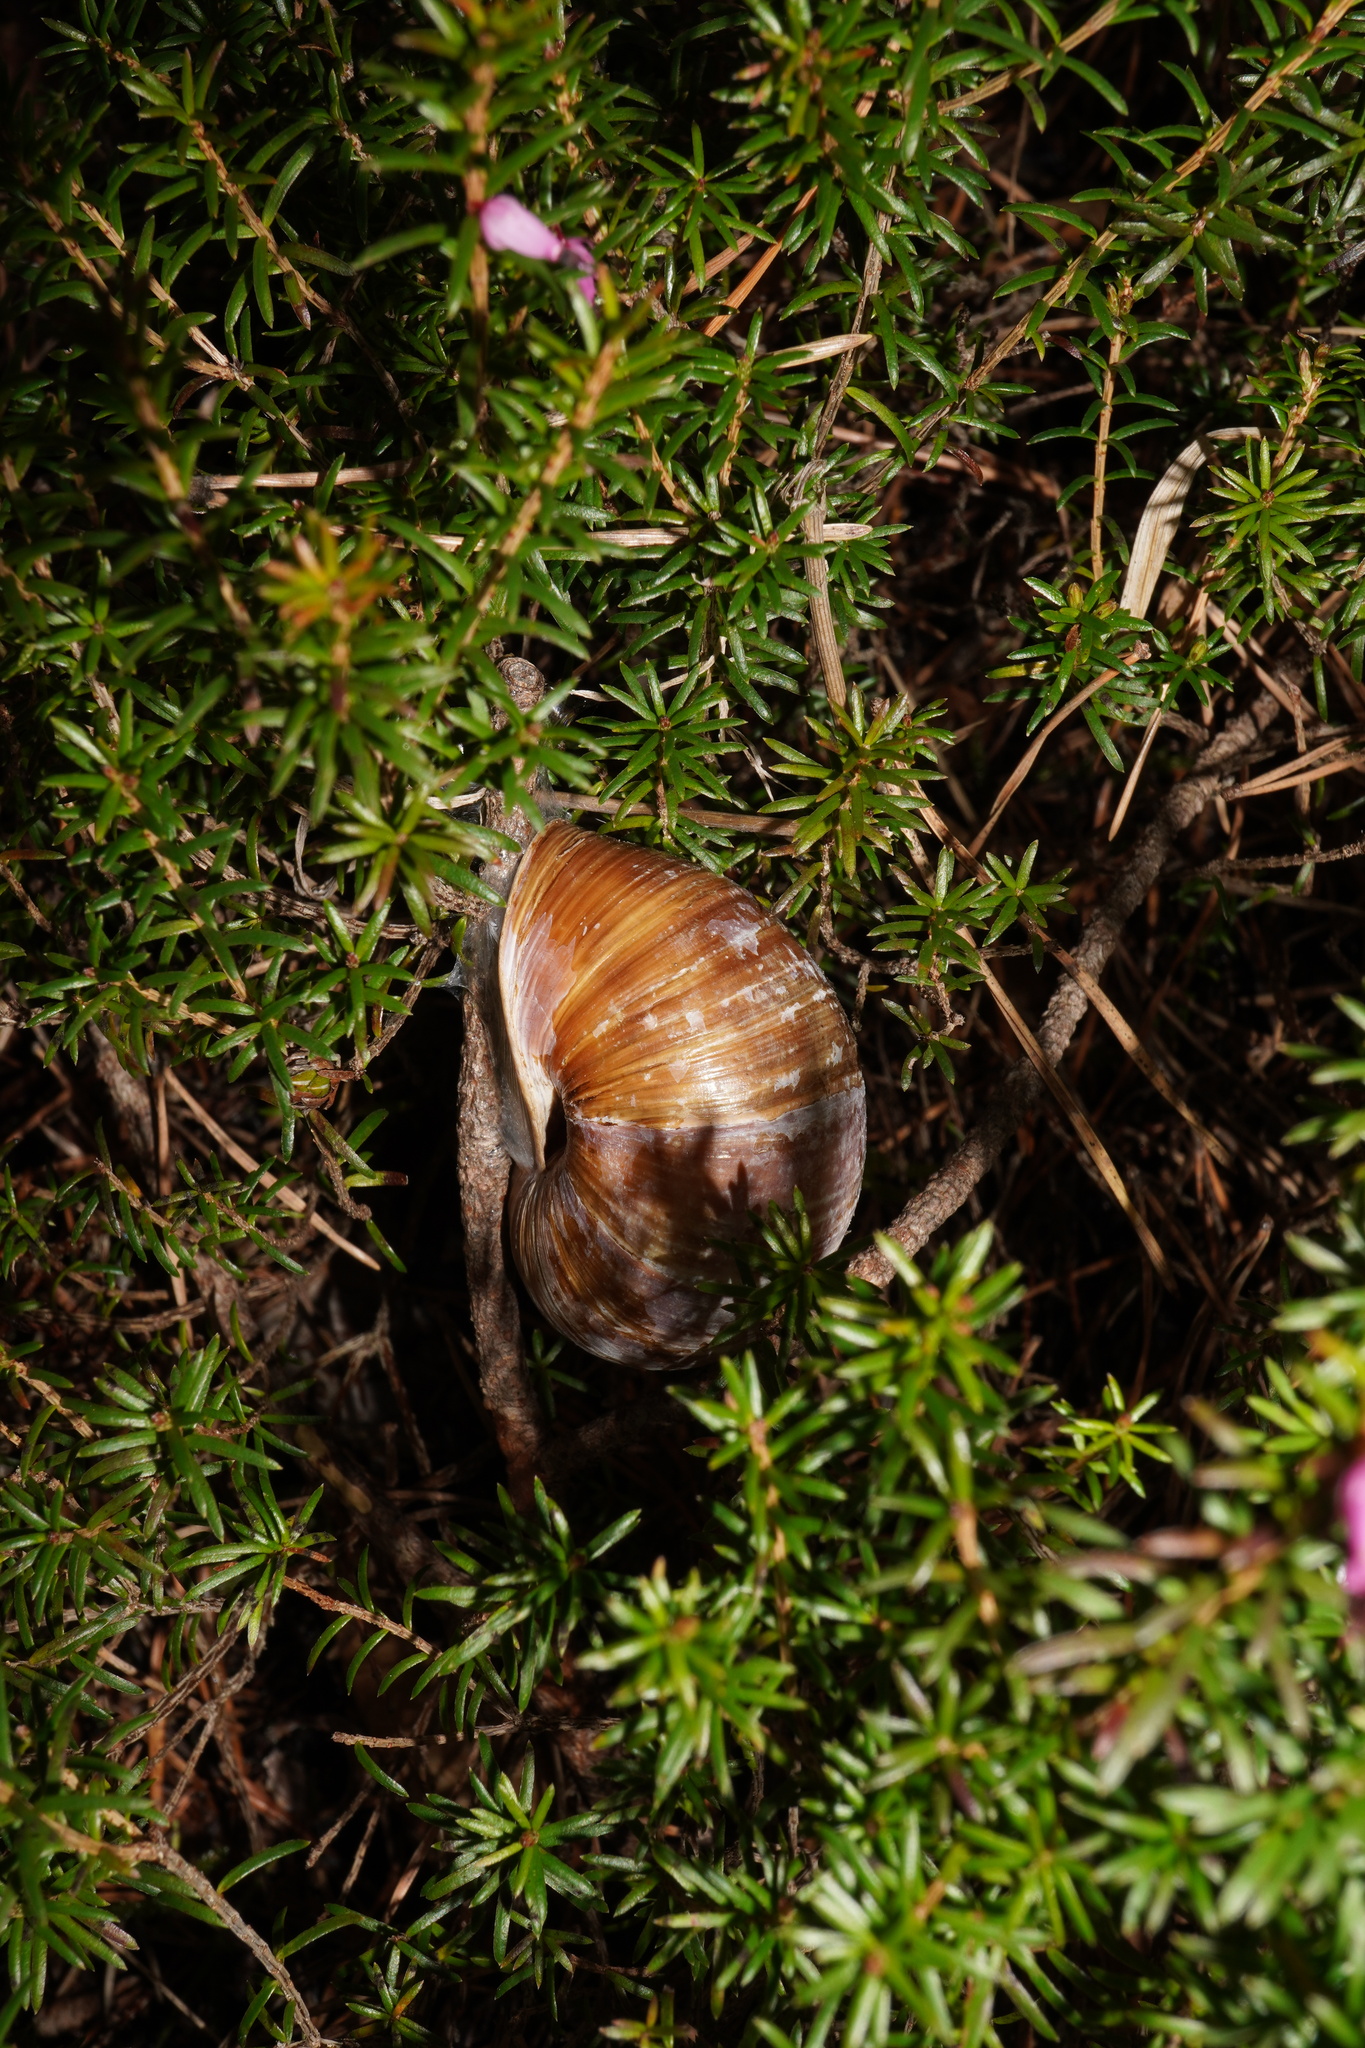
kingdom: Animalia
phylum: Mollusca
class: Gastropoda
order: Stylommatophora
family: Helicidae
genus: Helix
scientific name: Helix pomatia
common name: Roman snail
